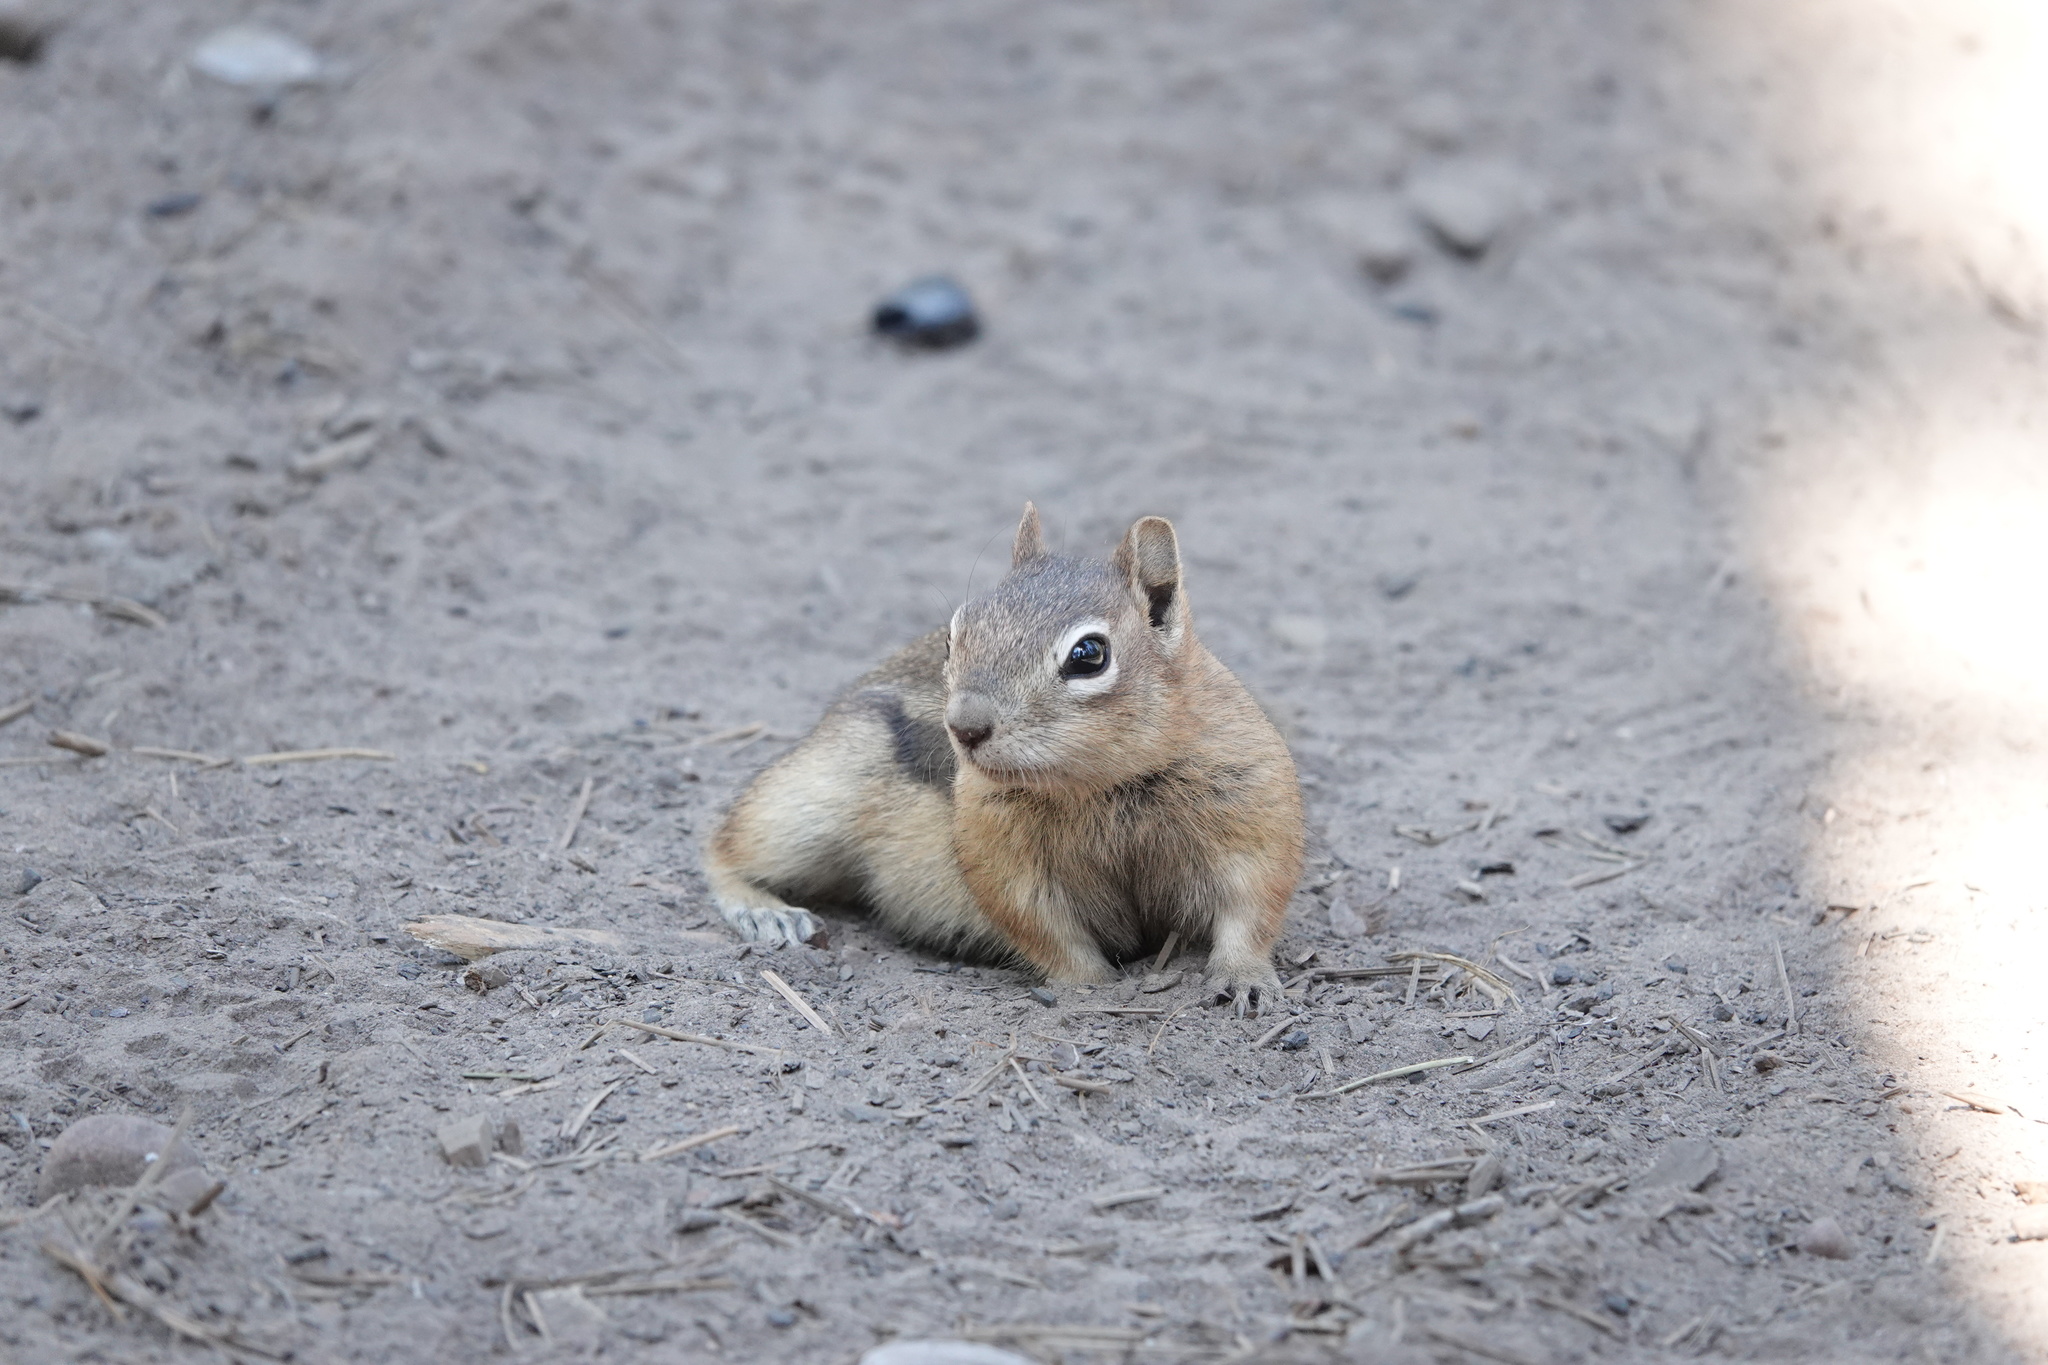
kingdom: Animalia
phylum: Chordata
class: Mammalia
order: Rodentia
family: Sciuridae
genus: Callospermophilus
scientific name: Callospermophilus lateralis
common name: Golden-mantled ground squirrel
